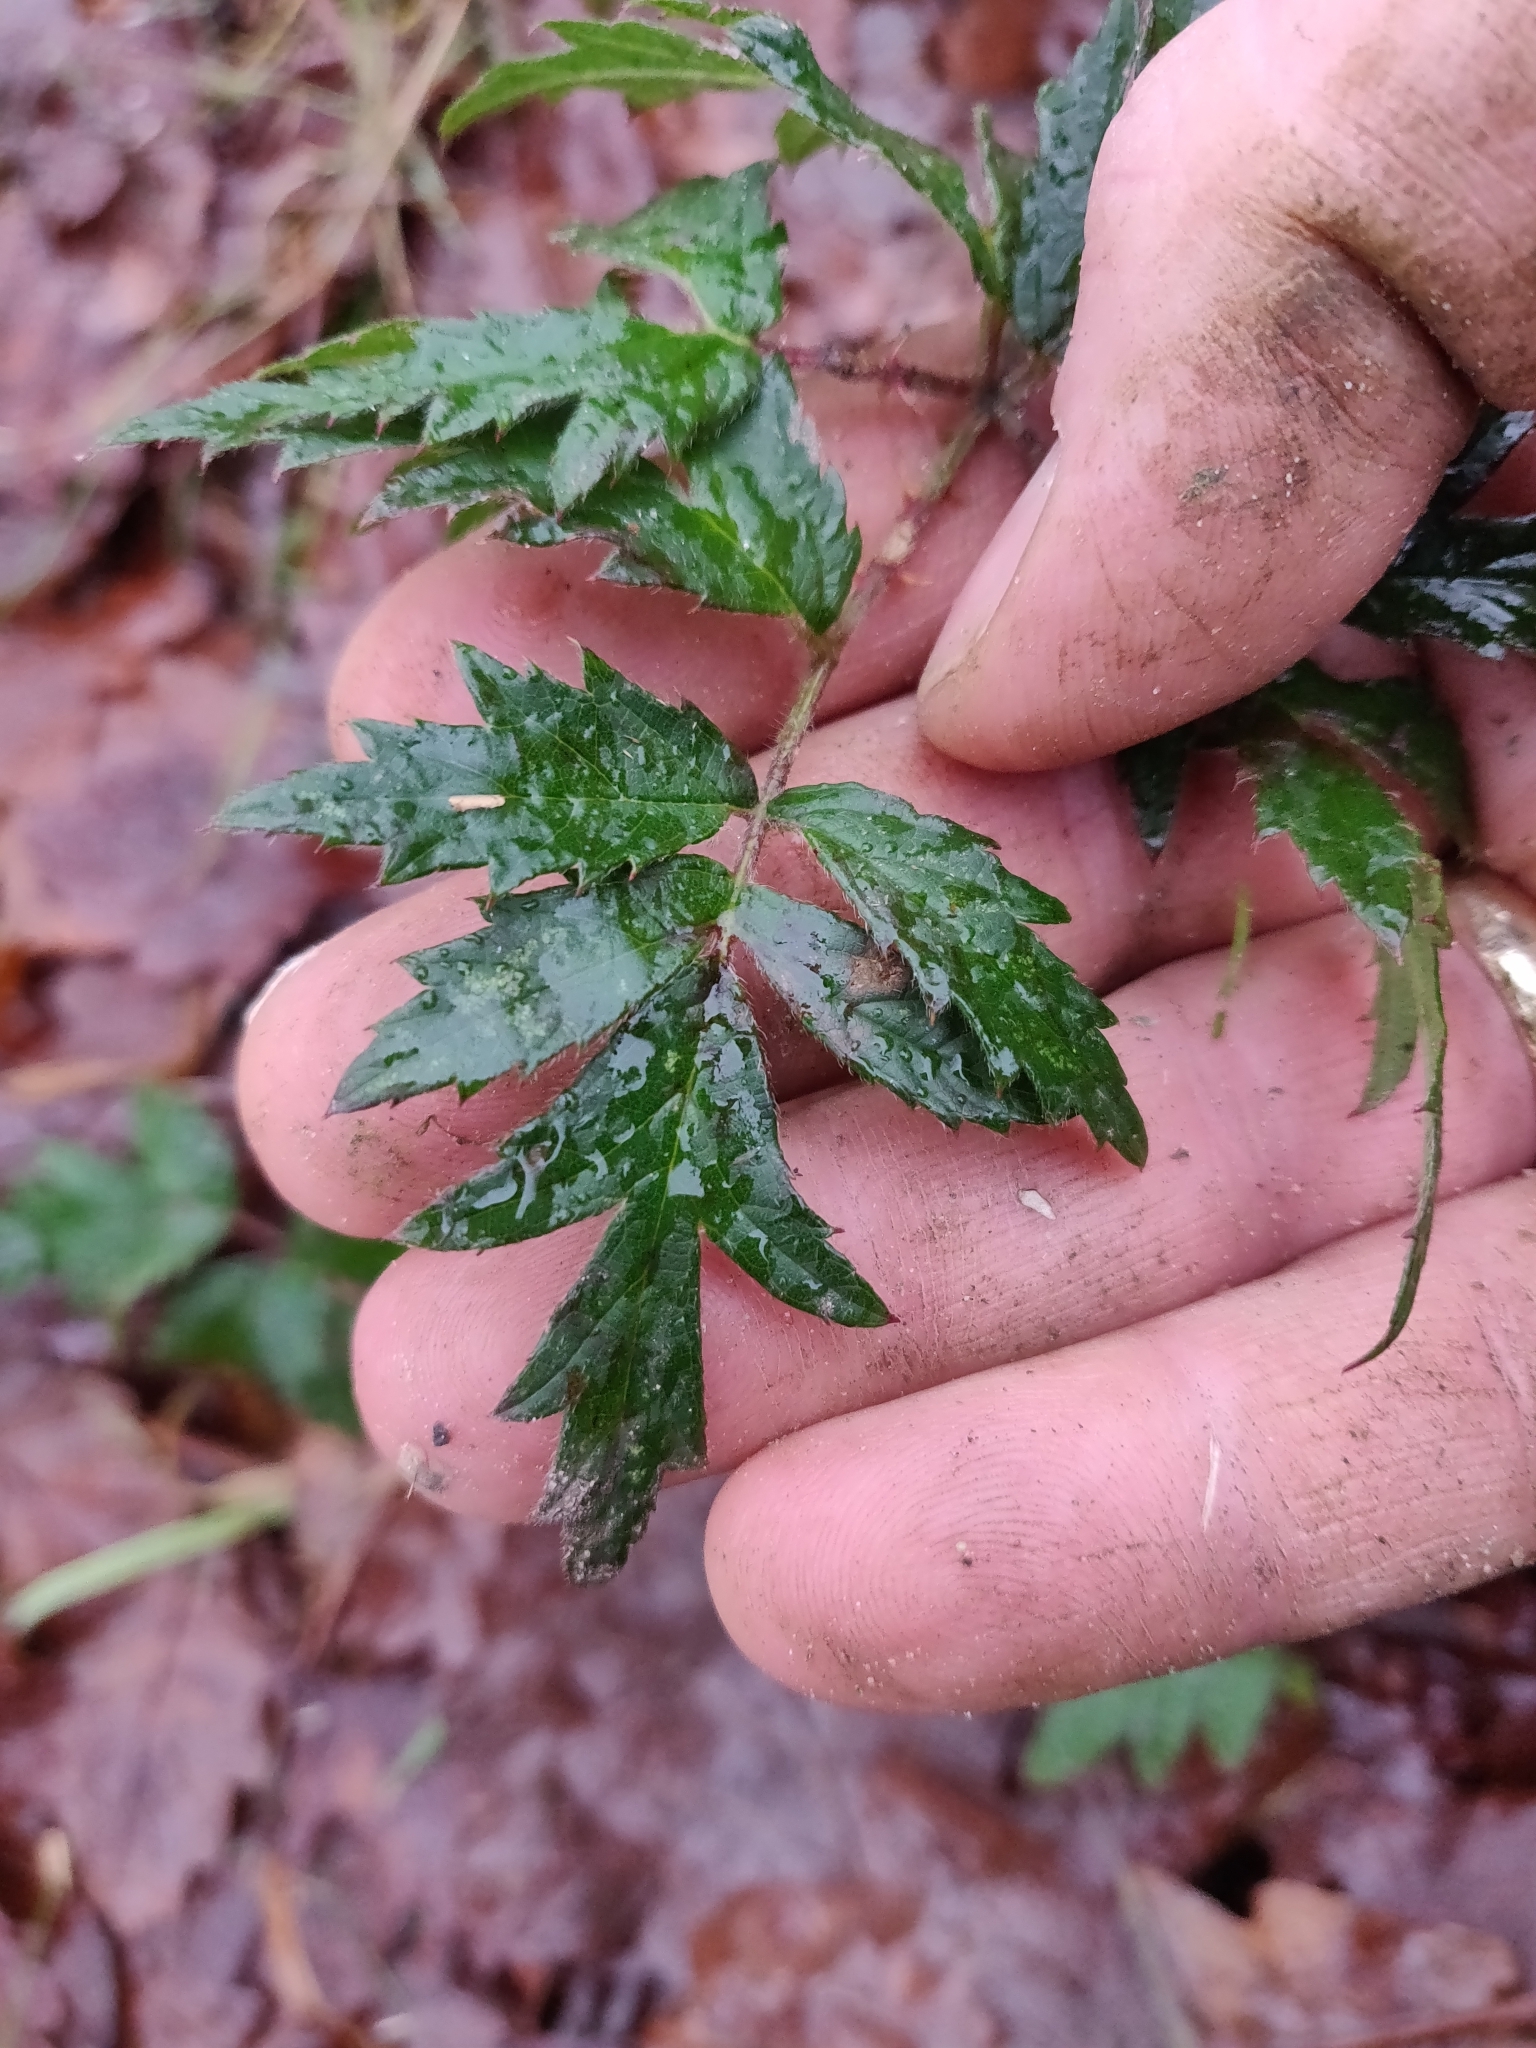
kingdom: Plantae
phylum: Tracheophyta
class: Magnoliopsida
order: Rosales
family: Rosaceae
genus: Rubus
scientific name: Rubus laciniatus
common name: Evergreen blackberry
